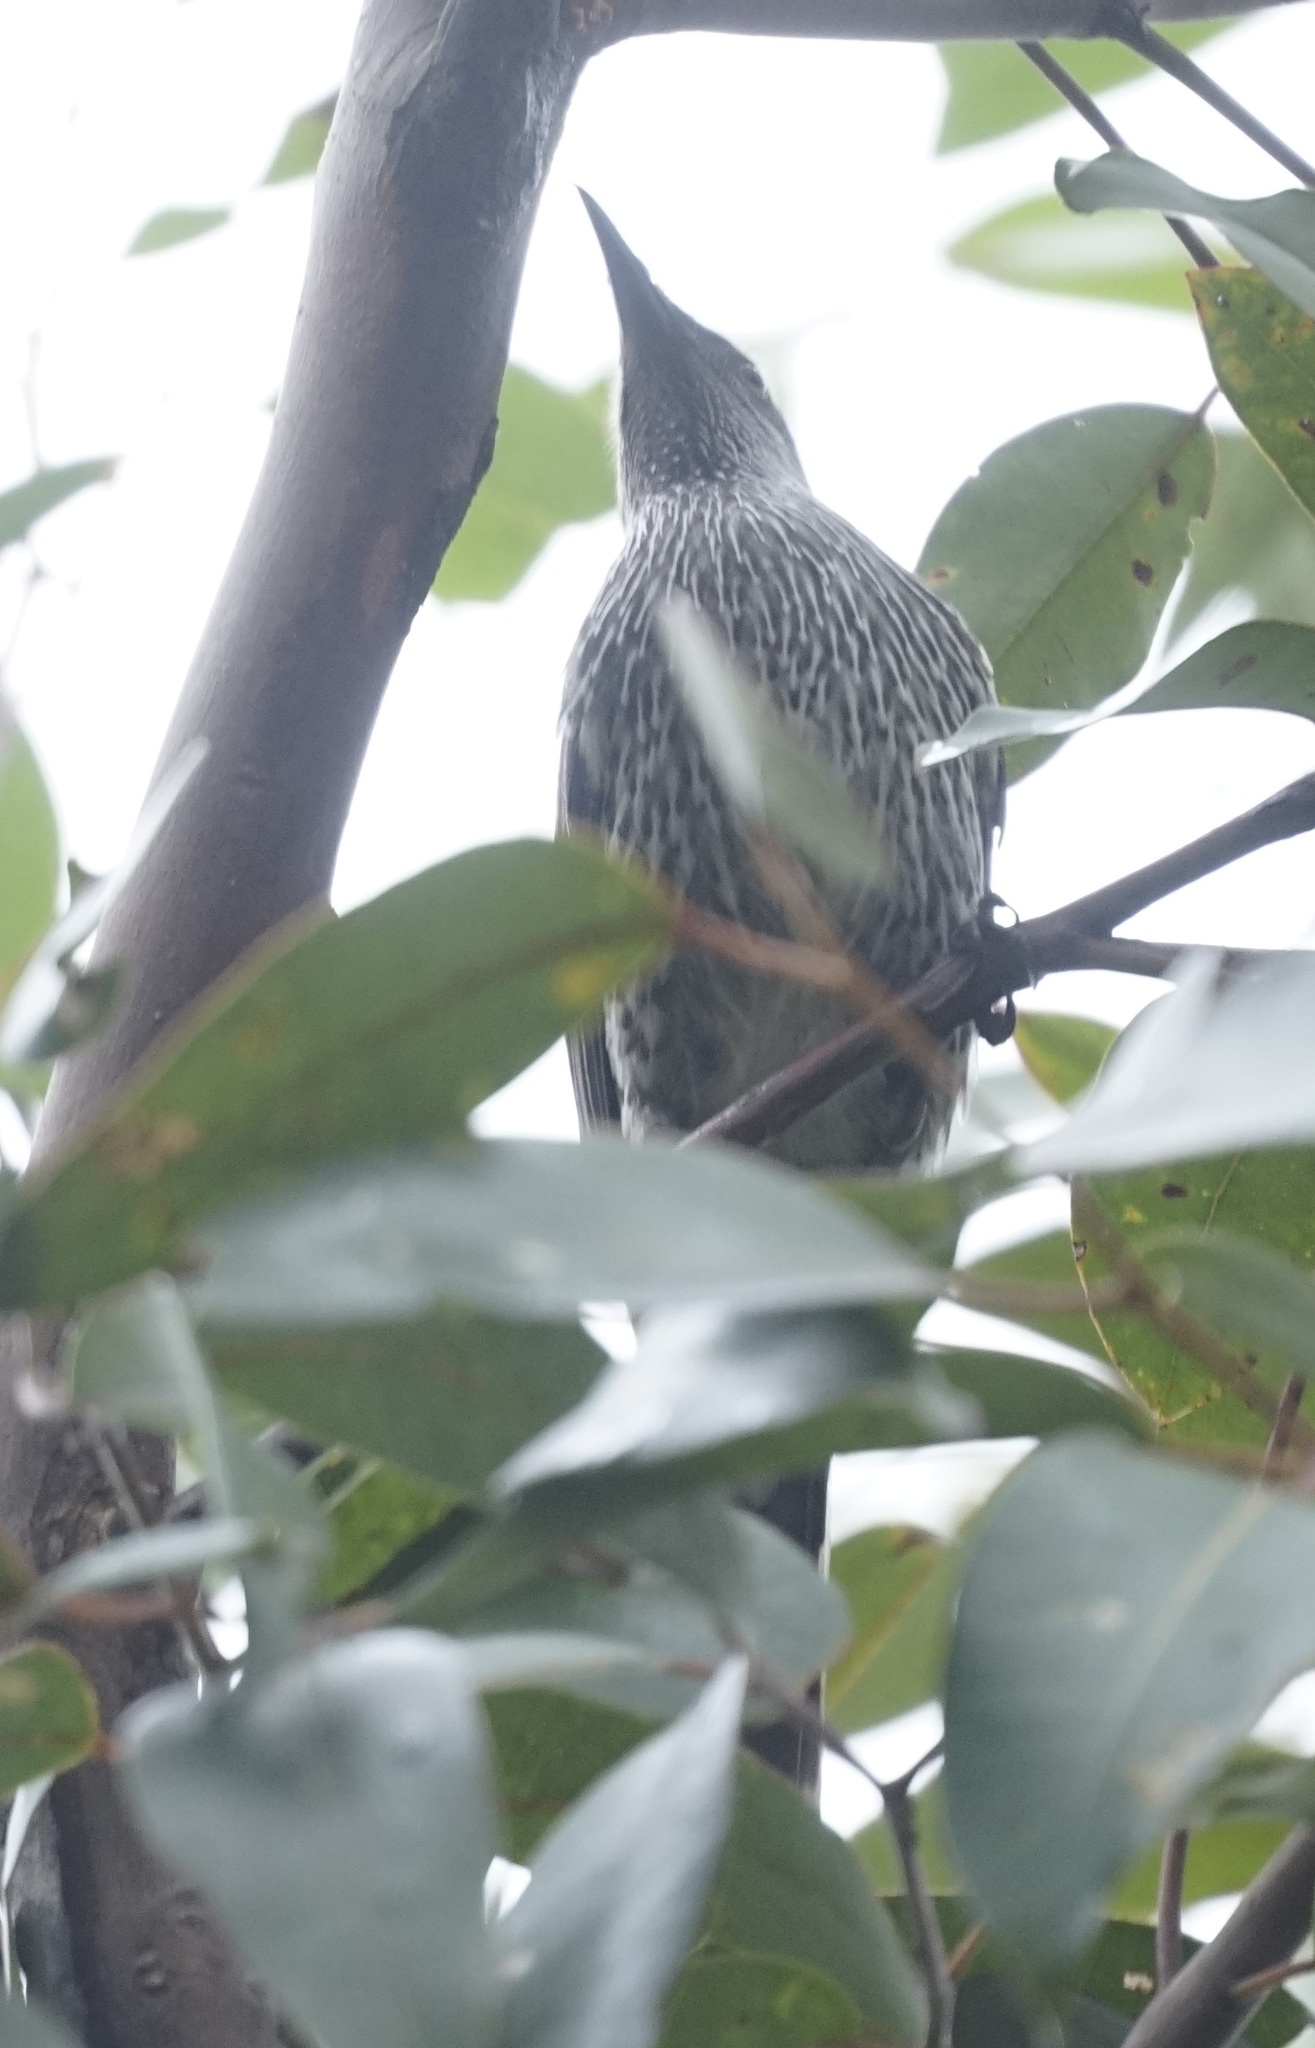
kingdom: Animalia
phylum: Chordata
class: Aves
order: Passeriformes
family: Meliphagidae
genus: Anthochaera
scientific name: Anthochaera chrysoptera
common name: Little wattlebird
